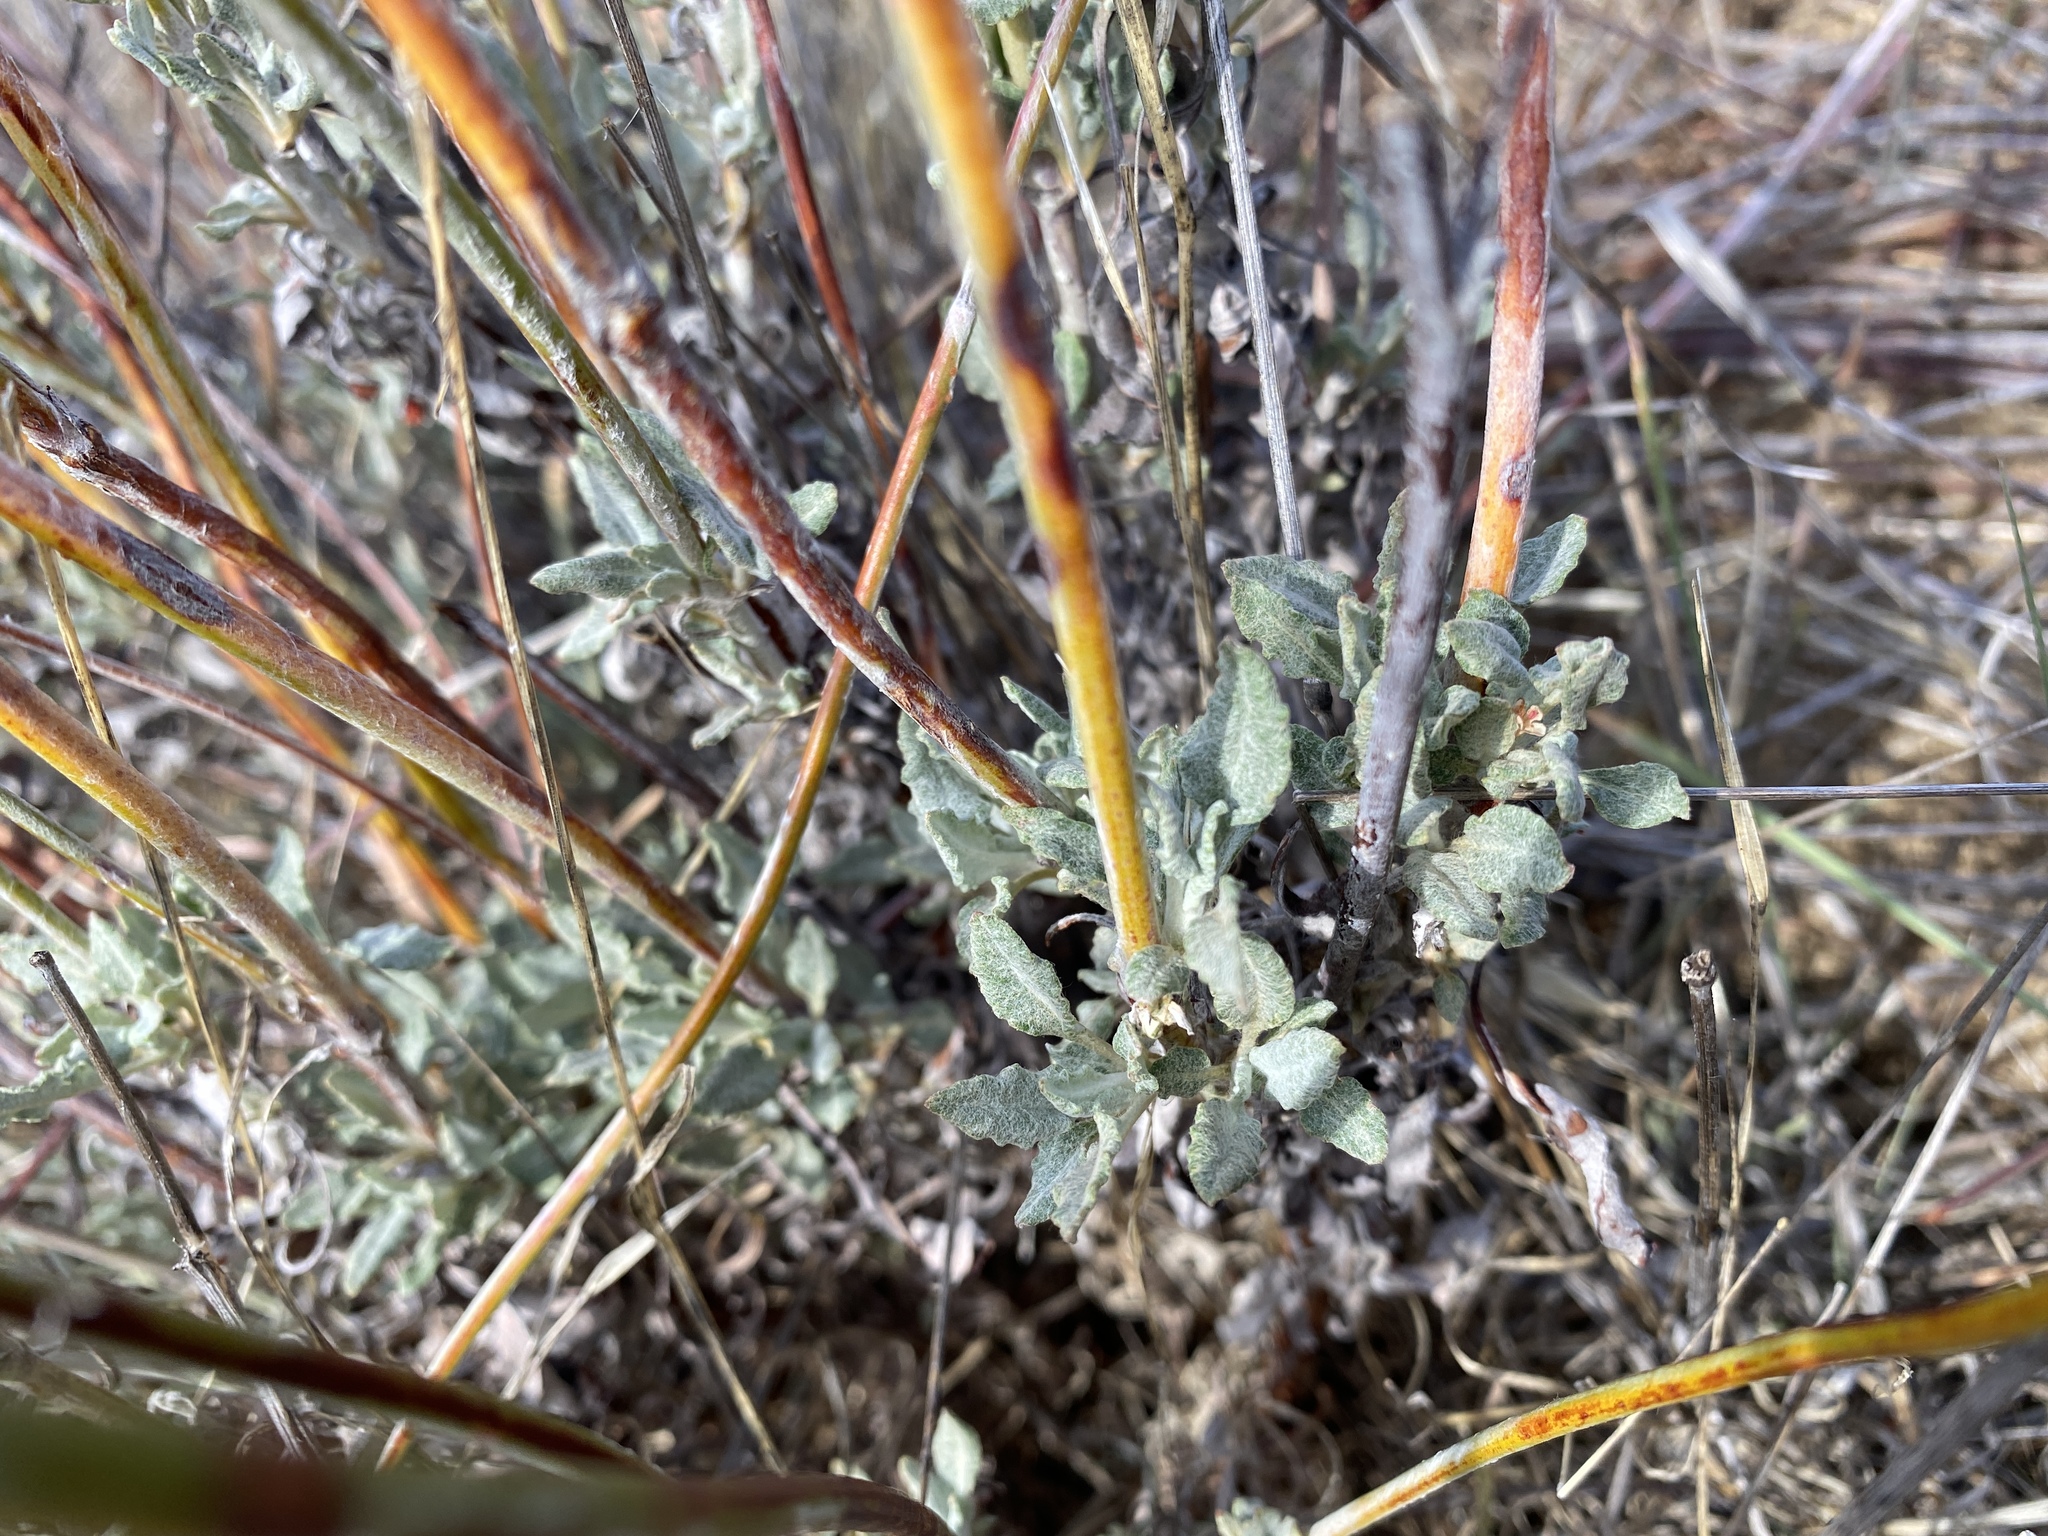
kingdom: Plantae
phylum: Tracheophyta
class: Magnoliopsida
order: Caryophyllales
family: Polygonaceae
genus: Eriogonum
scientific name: Eriogonum nudum
